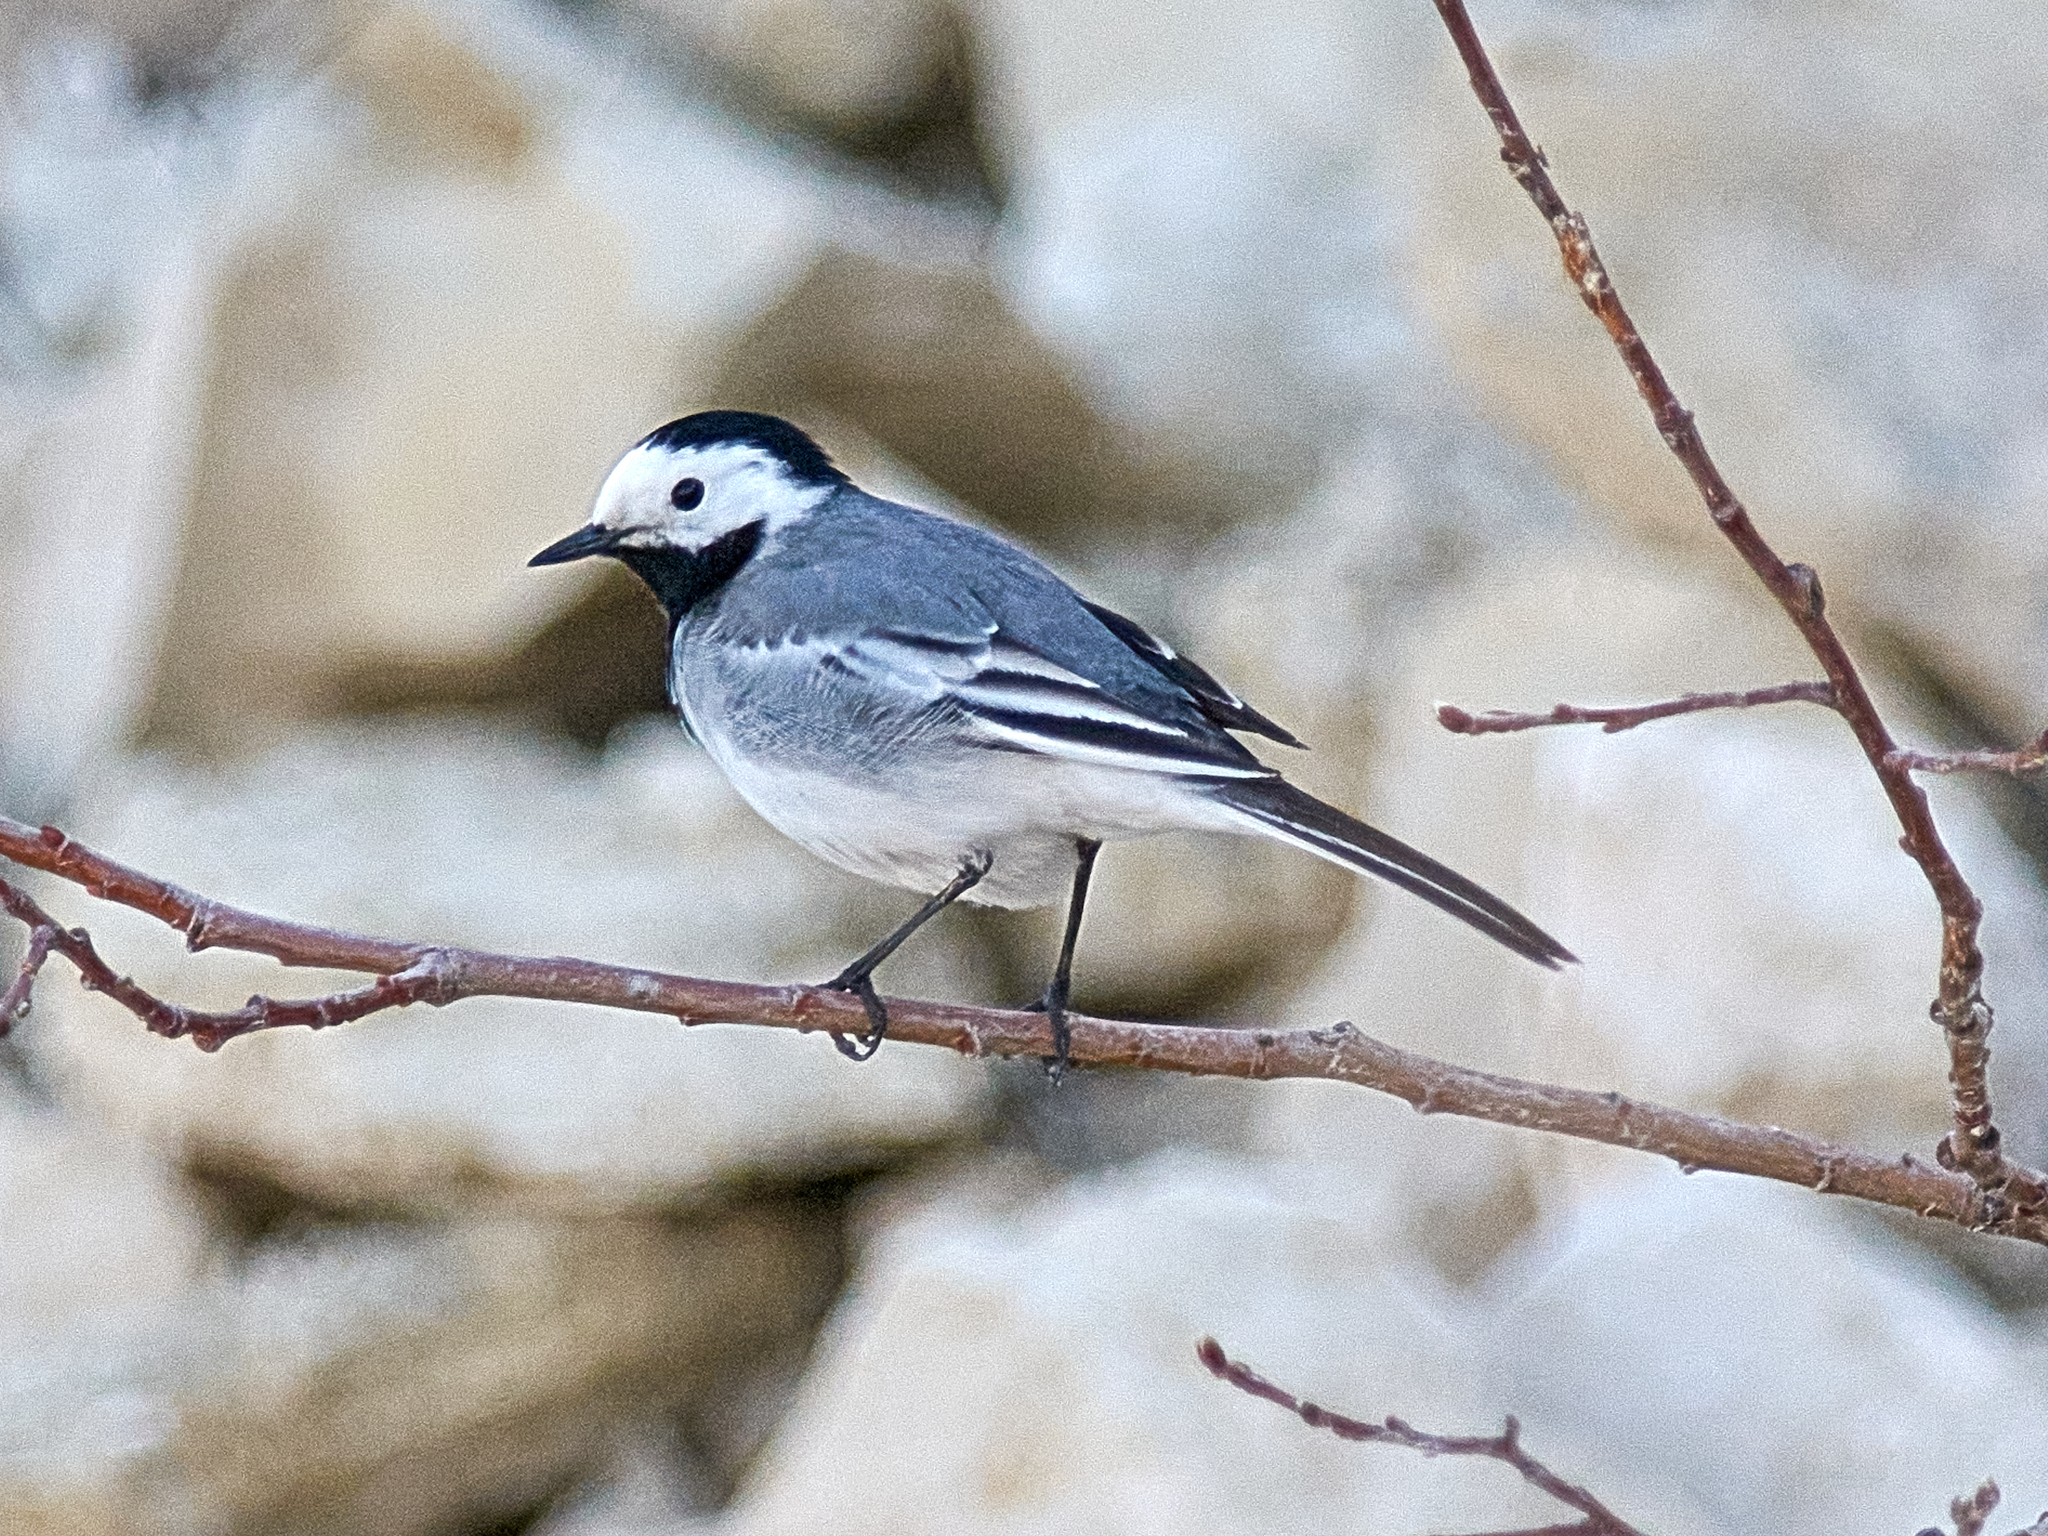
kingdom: Animalia
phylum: Chordata
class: Aves
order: Passeriformes
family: Motacillidae
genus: Motacilla
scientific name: Motacilla alba
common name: White wagtail
